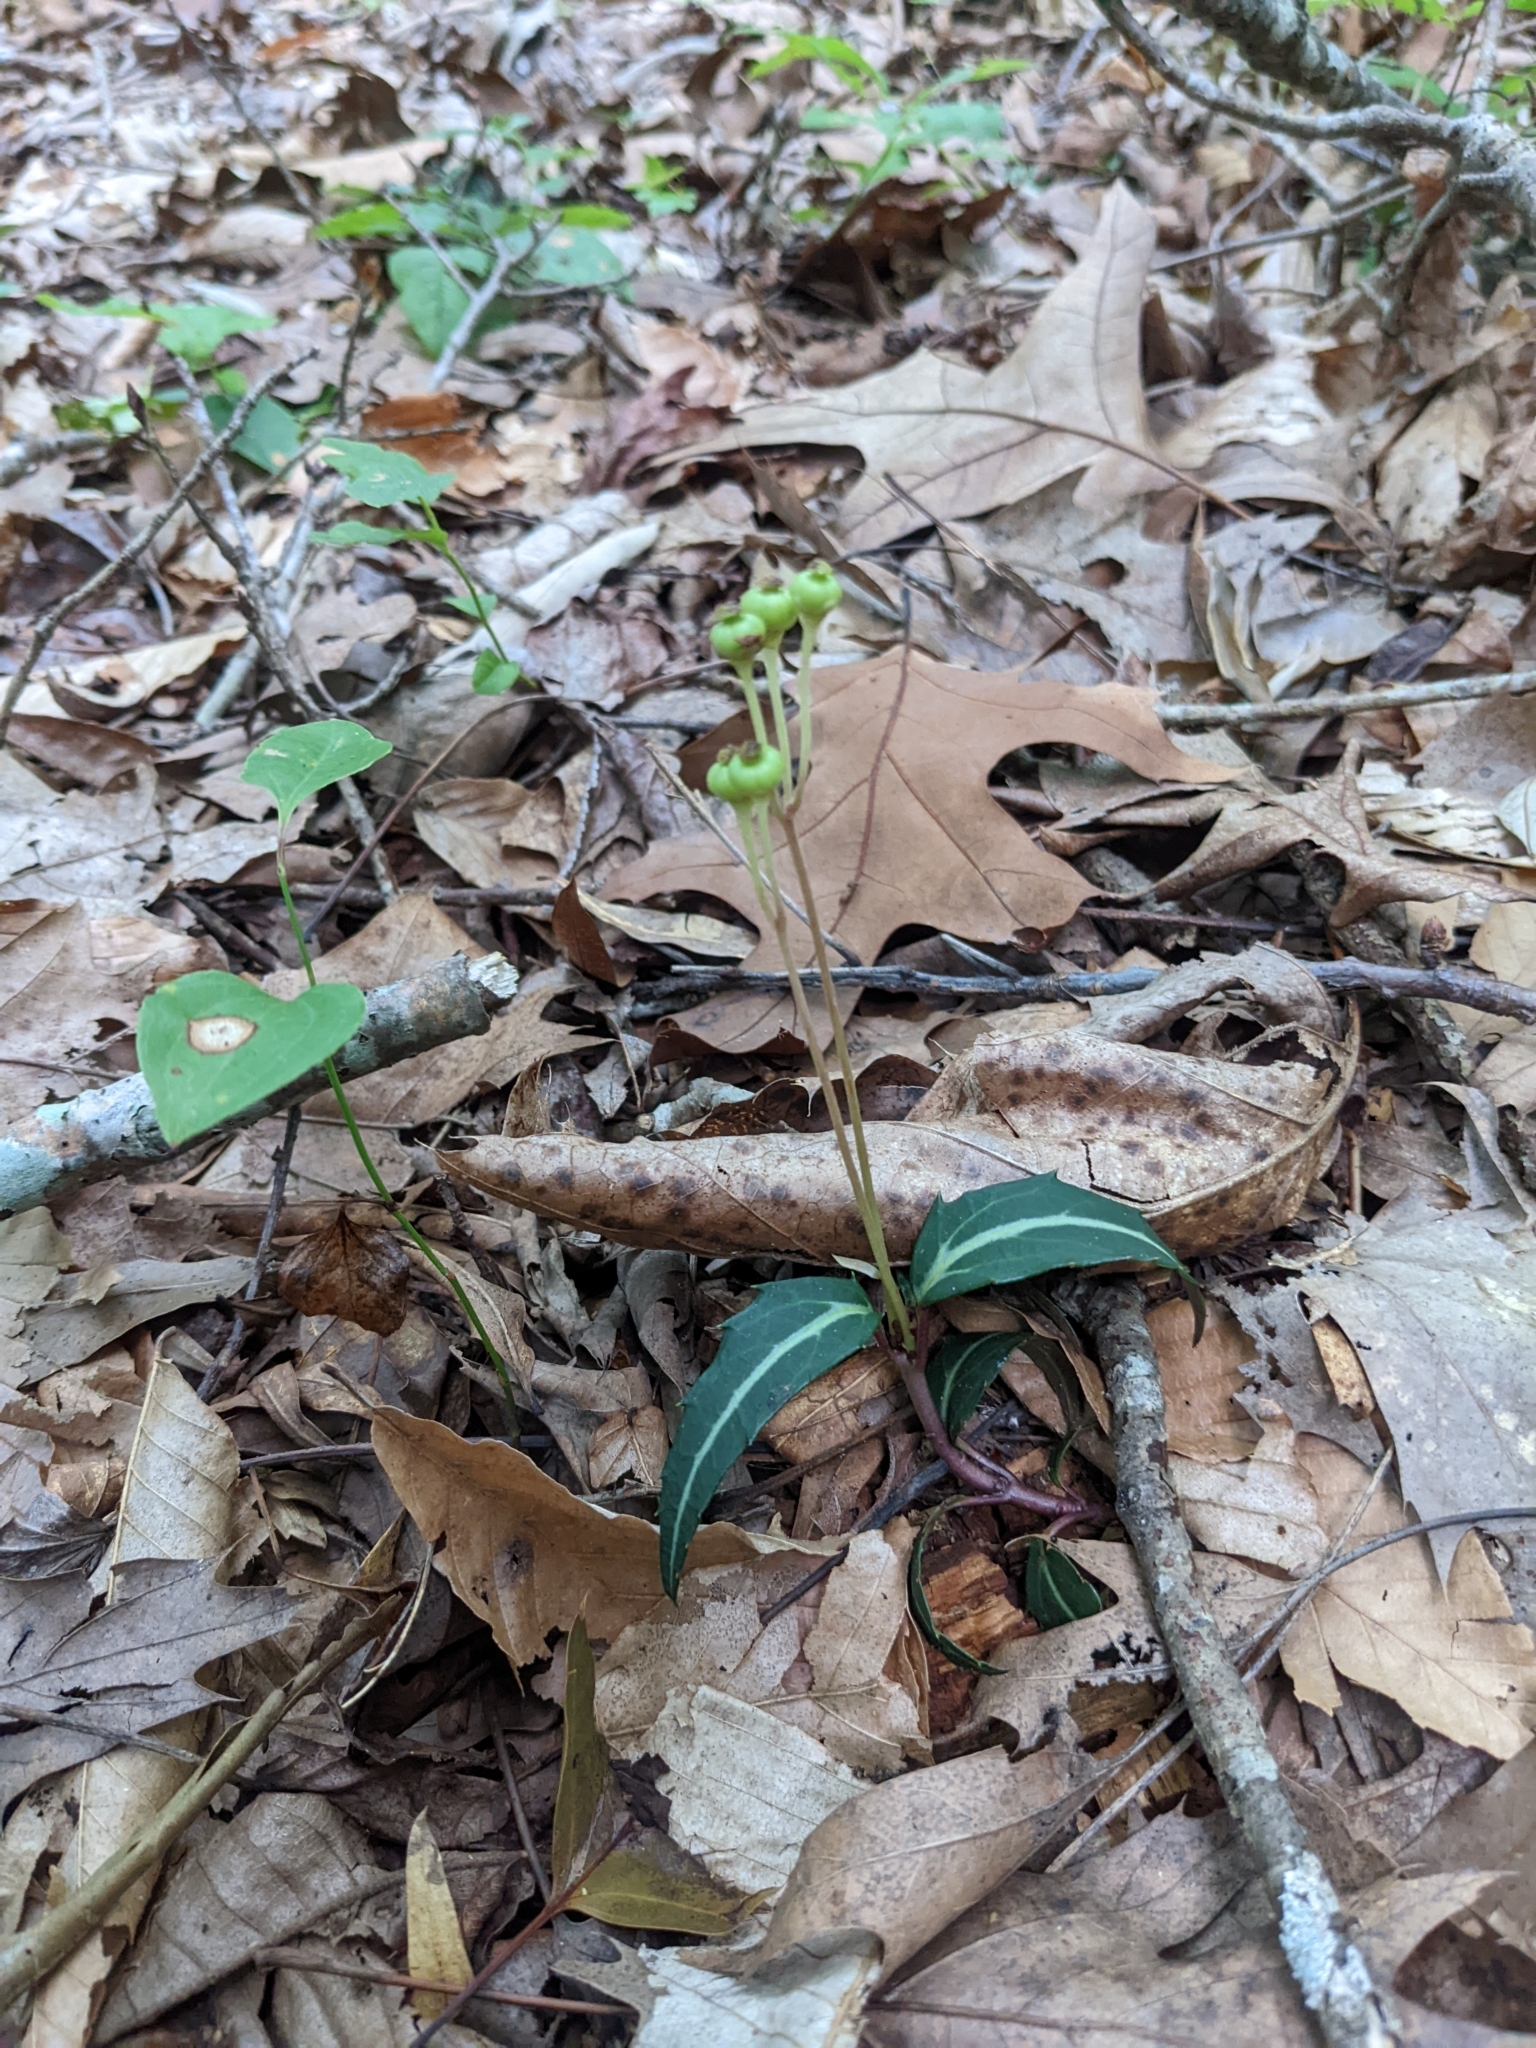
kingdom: Plantae
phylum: Tracheophyta
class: Magnoliopsida
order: Ericales
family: Ericaceae
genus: Chimaphila
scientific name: Chimaphila maculata
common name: Spotted pipsissewa
